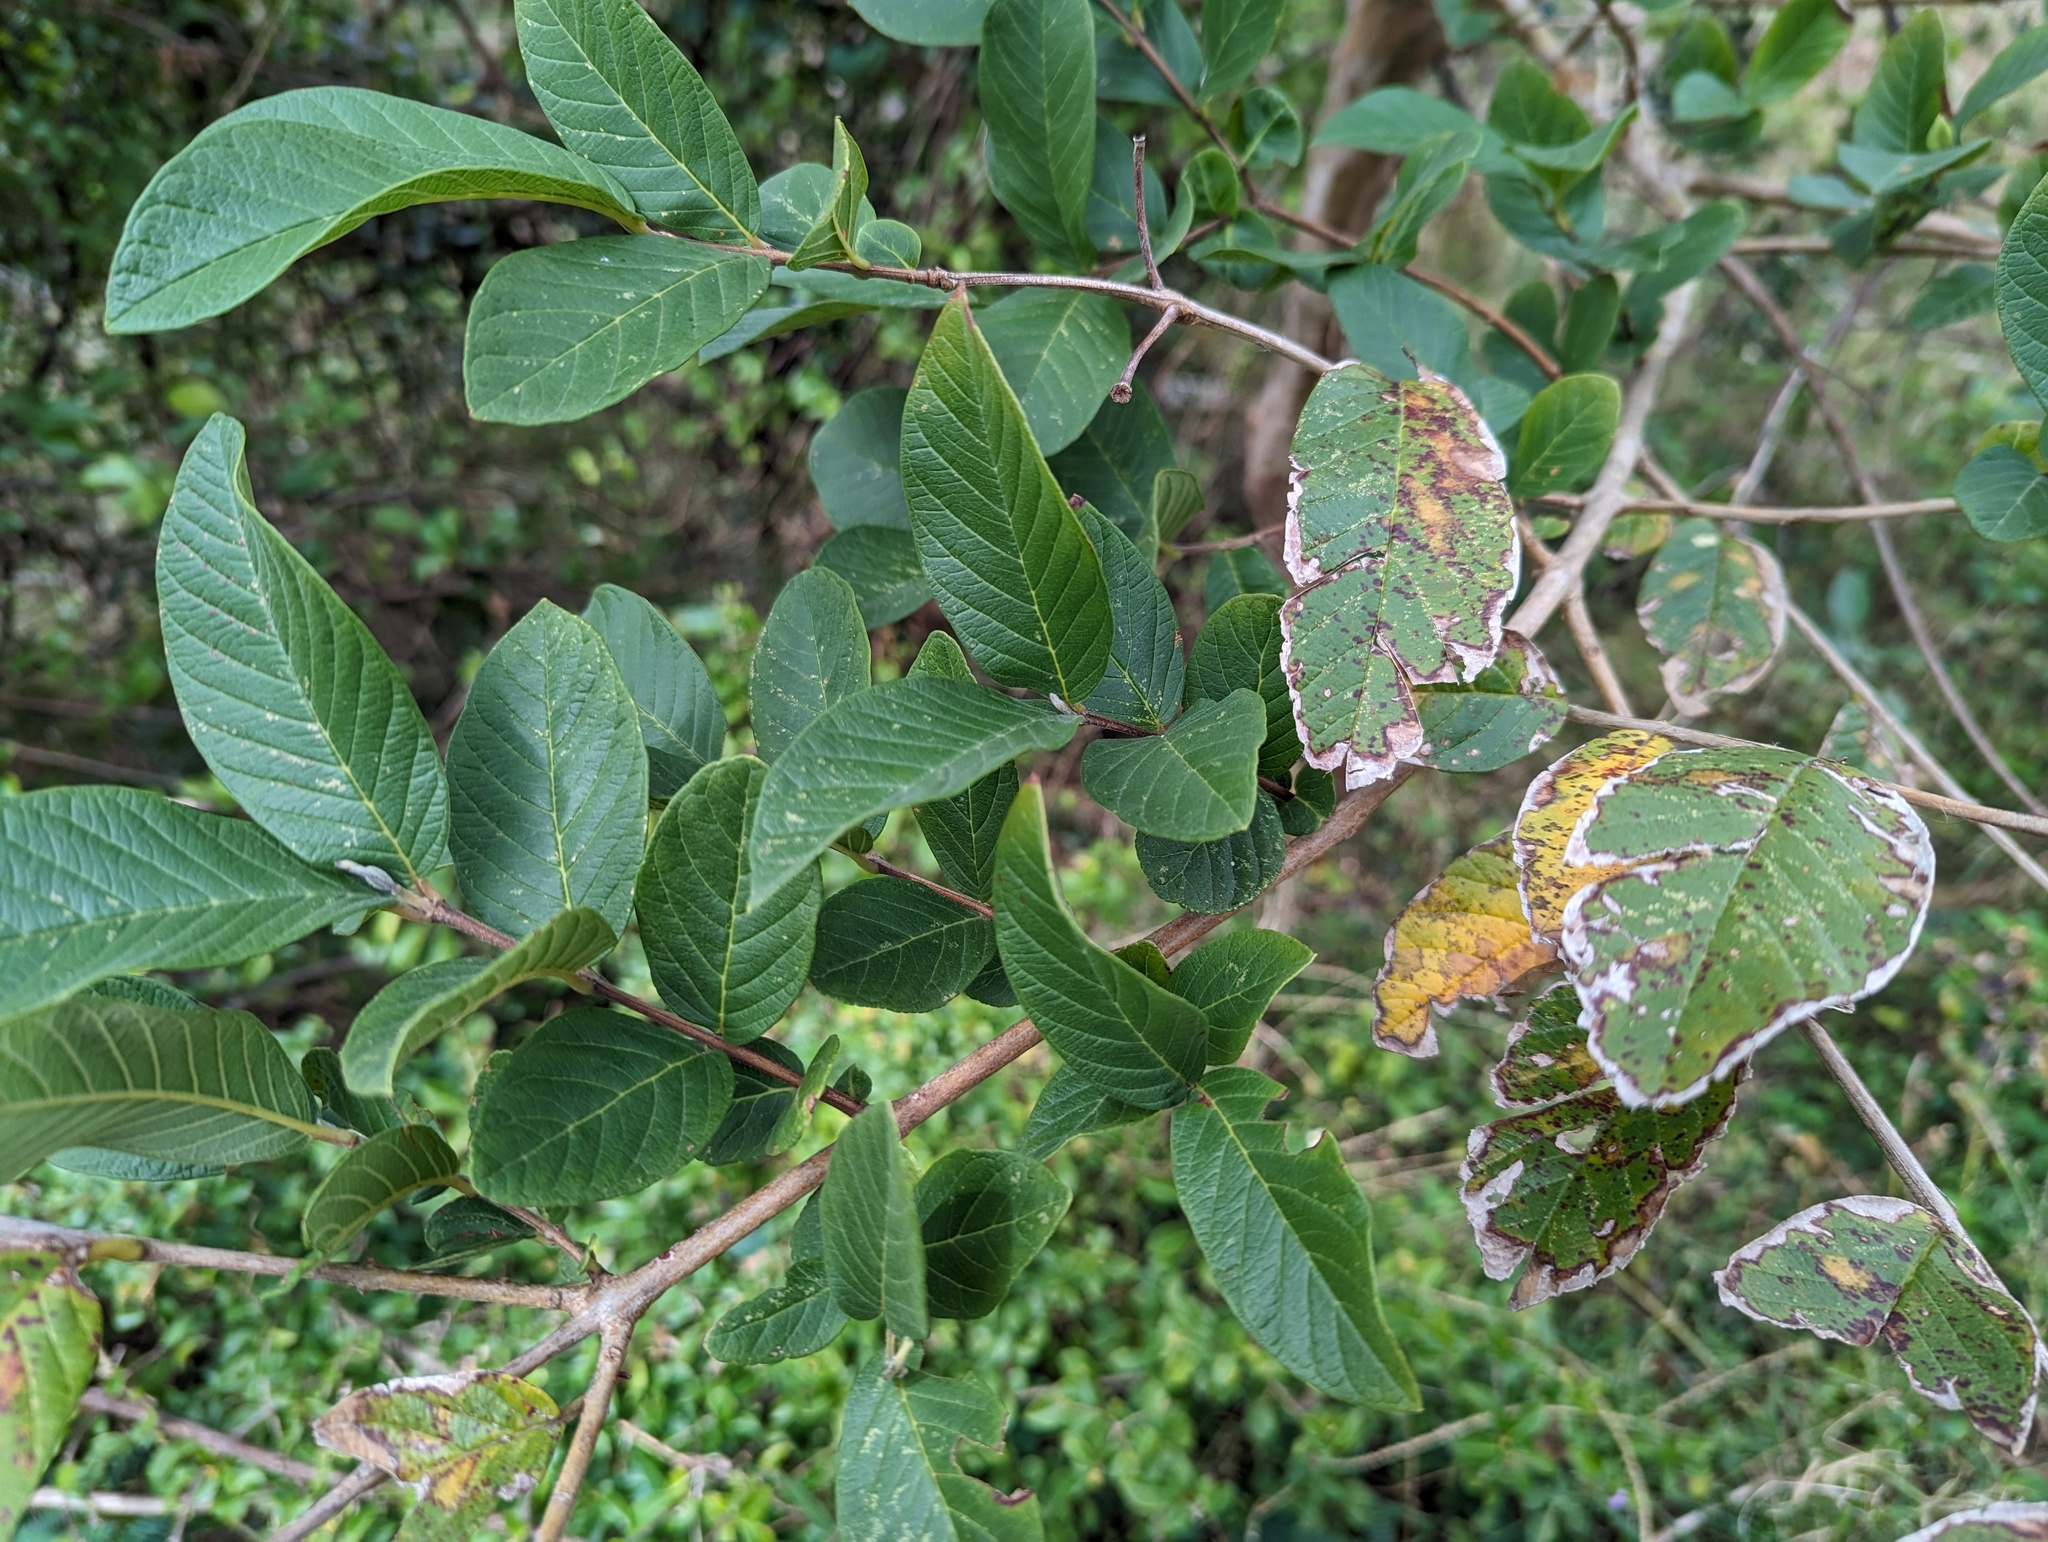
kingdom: Plantae
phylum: Tracheophyta
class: Magnoliopsida
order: Myrtales
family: Myrtaceae
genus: Psidium
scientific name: Psidium guajava
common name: Guava
